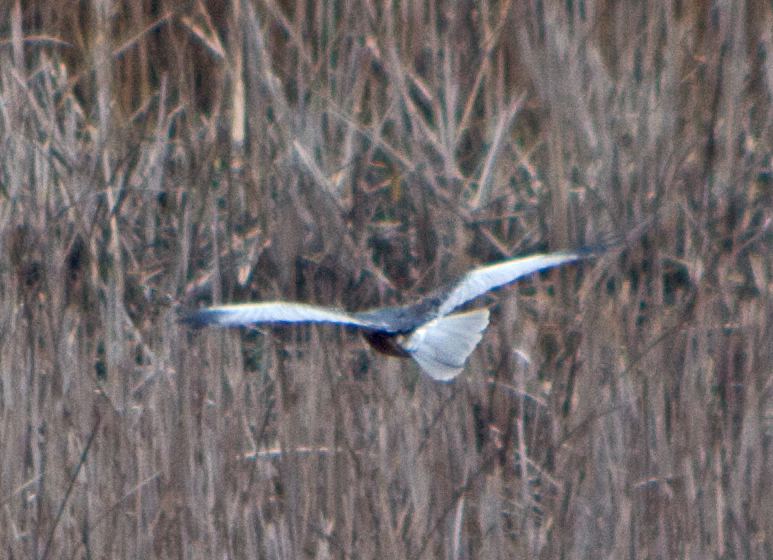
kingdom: Animalia
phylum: Chordata
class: Aves
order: Accipitriformes
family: Accipitridae
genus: Circus
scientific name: Circus aeruginosus
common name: Western marsh harrier
